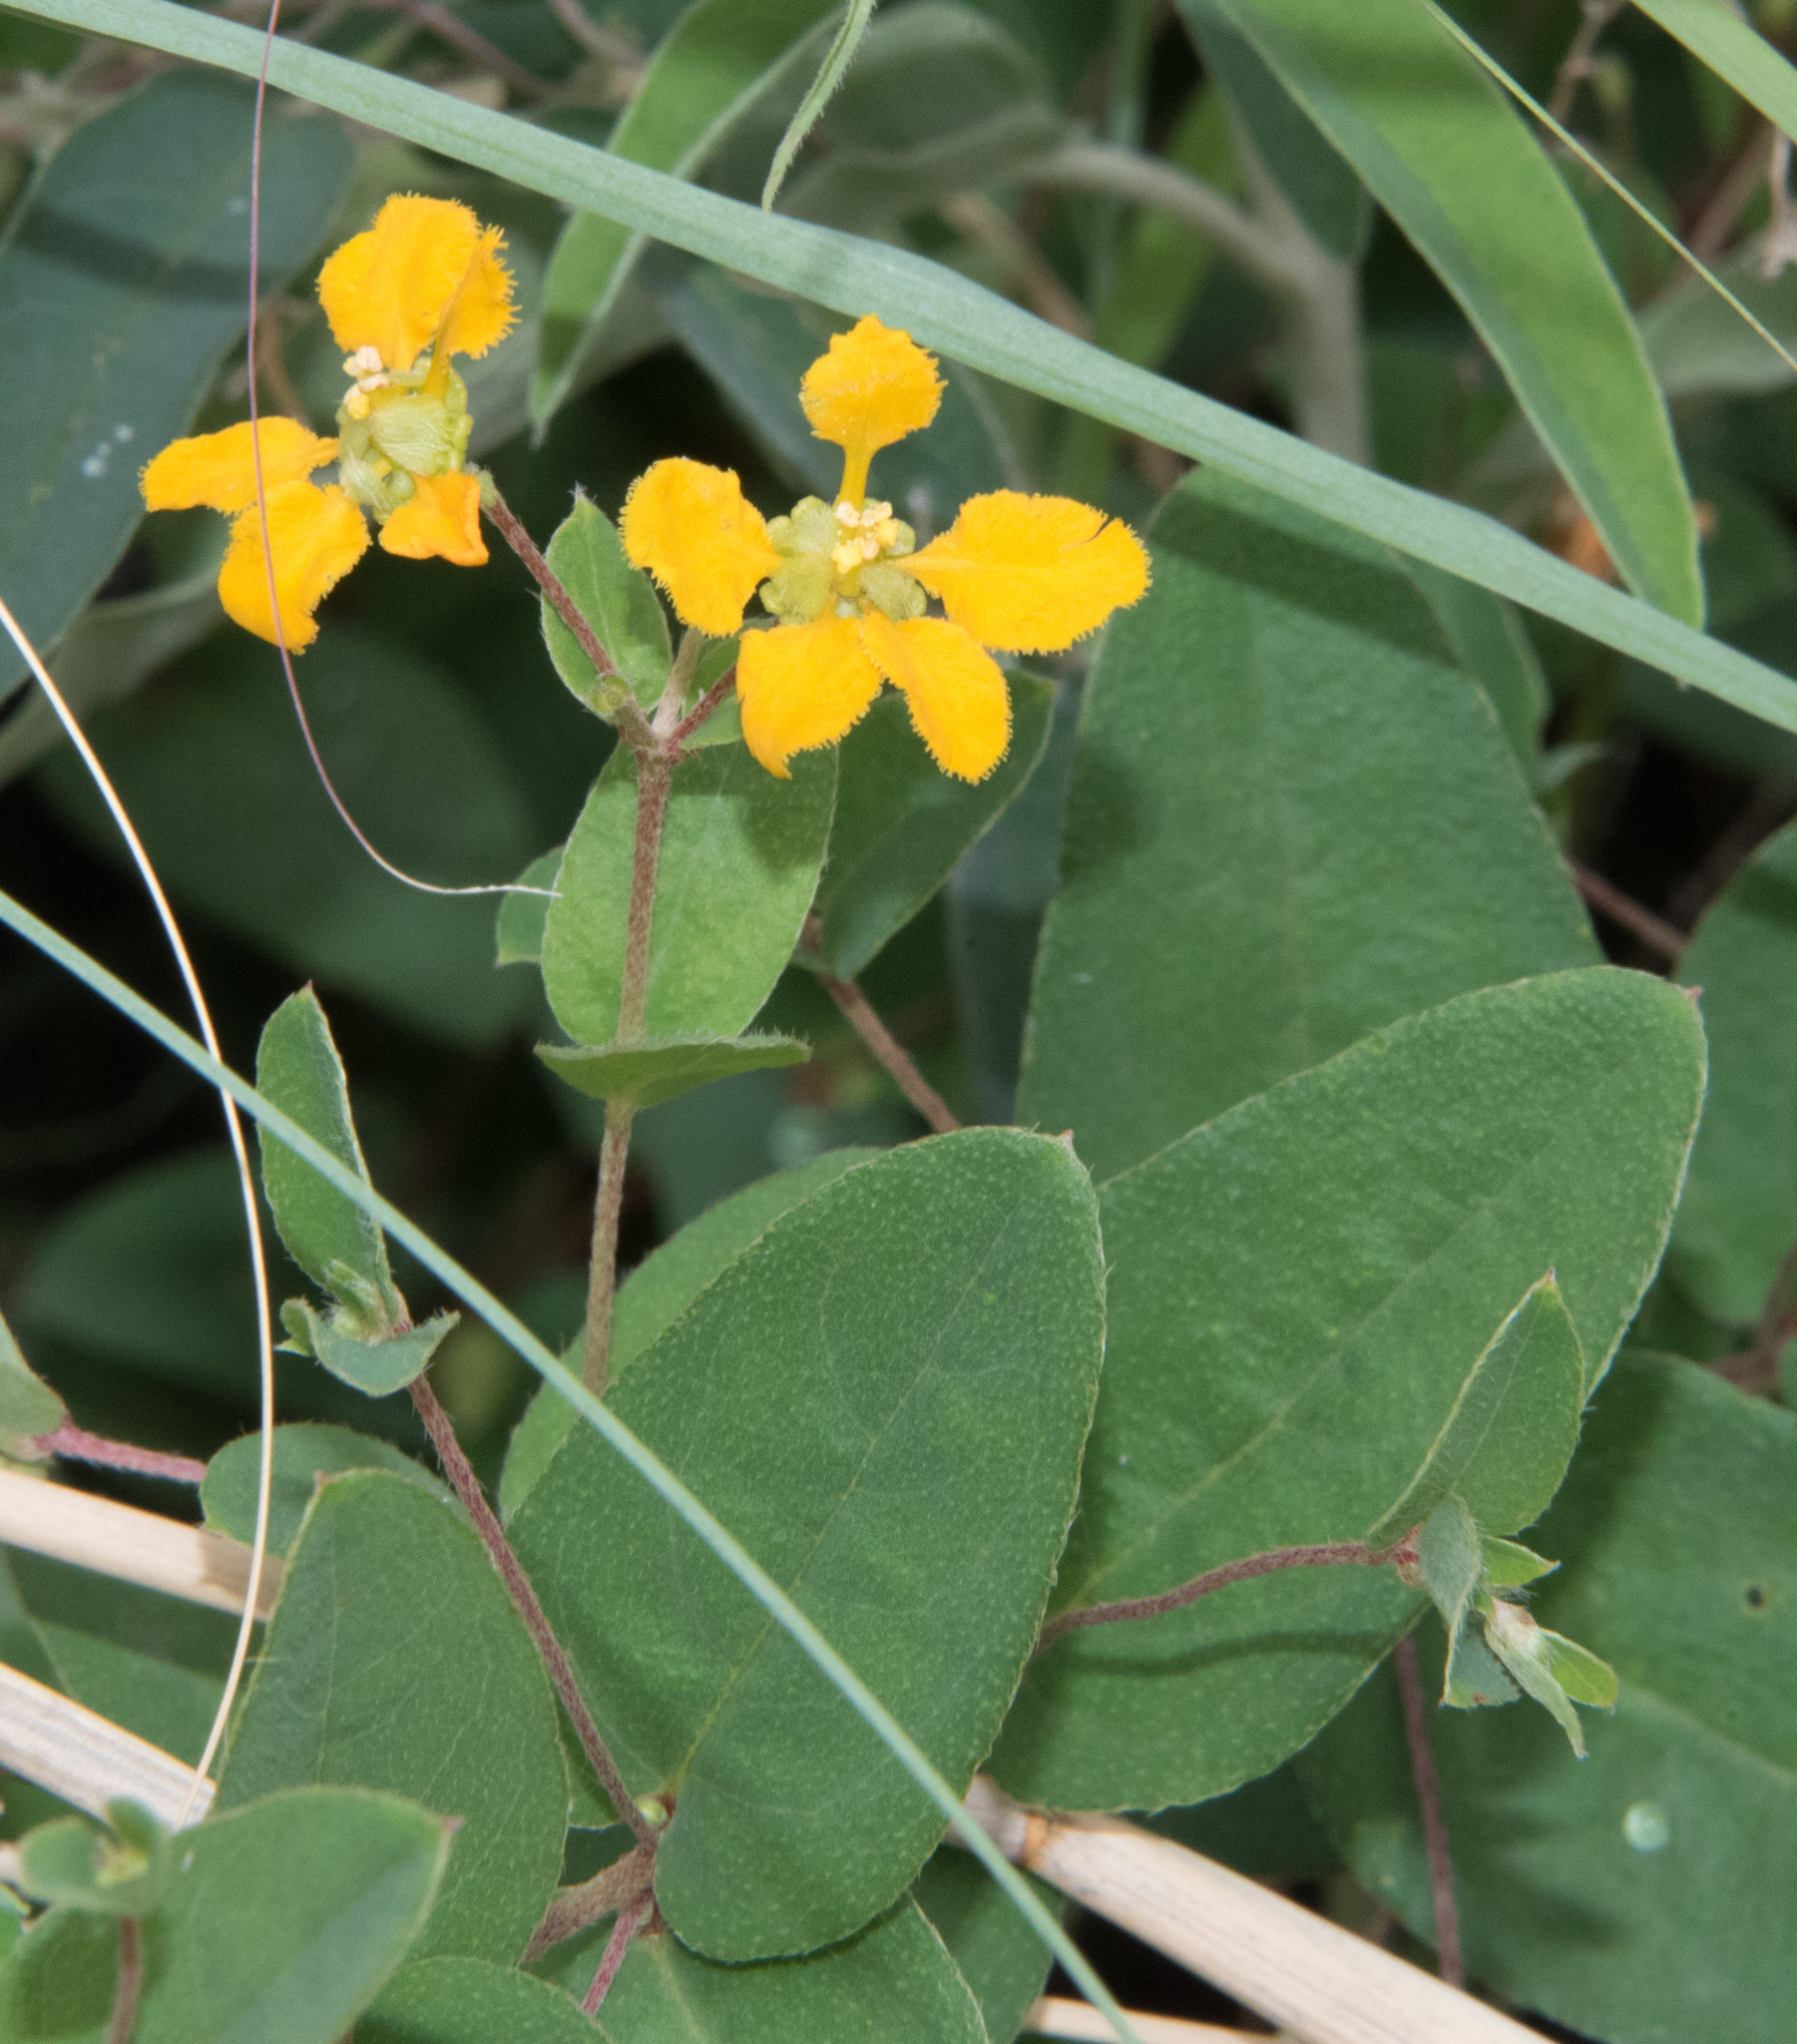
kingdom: Plantae
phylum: Tracheophyta
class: Magnoliopsida
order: Malpighiales
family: Malpighiaceae
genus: Aspicarpa
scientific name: Aspicarpa hirtella
